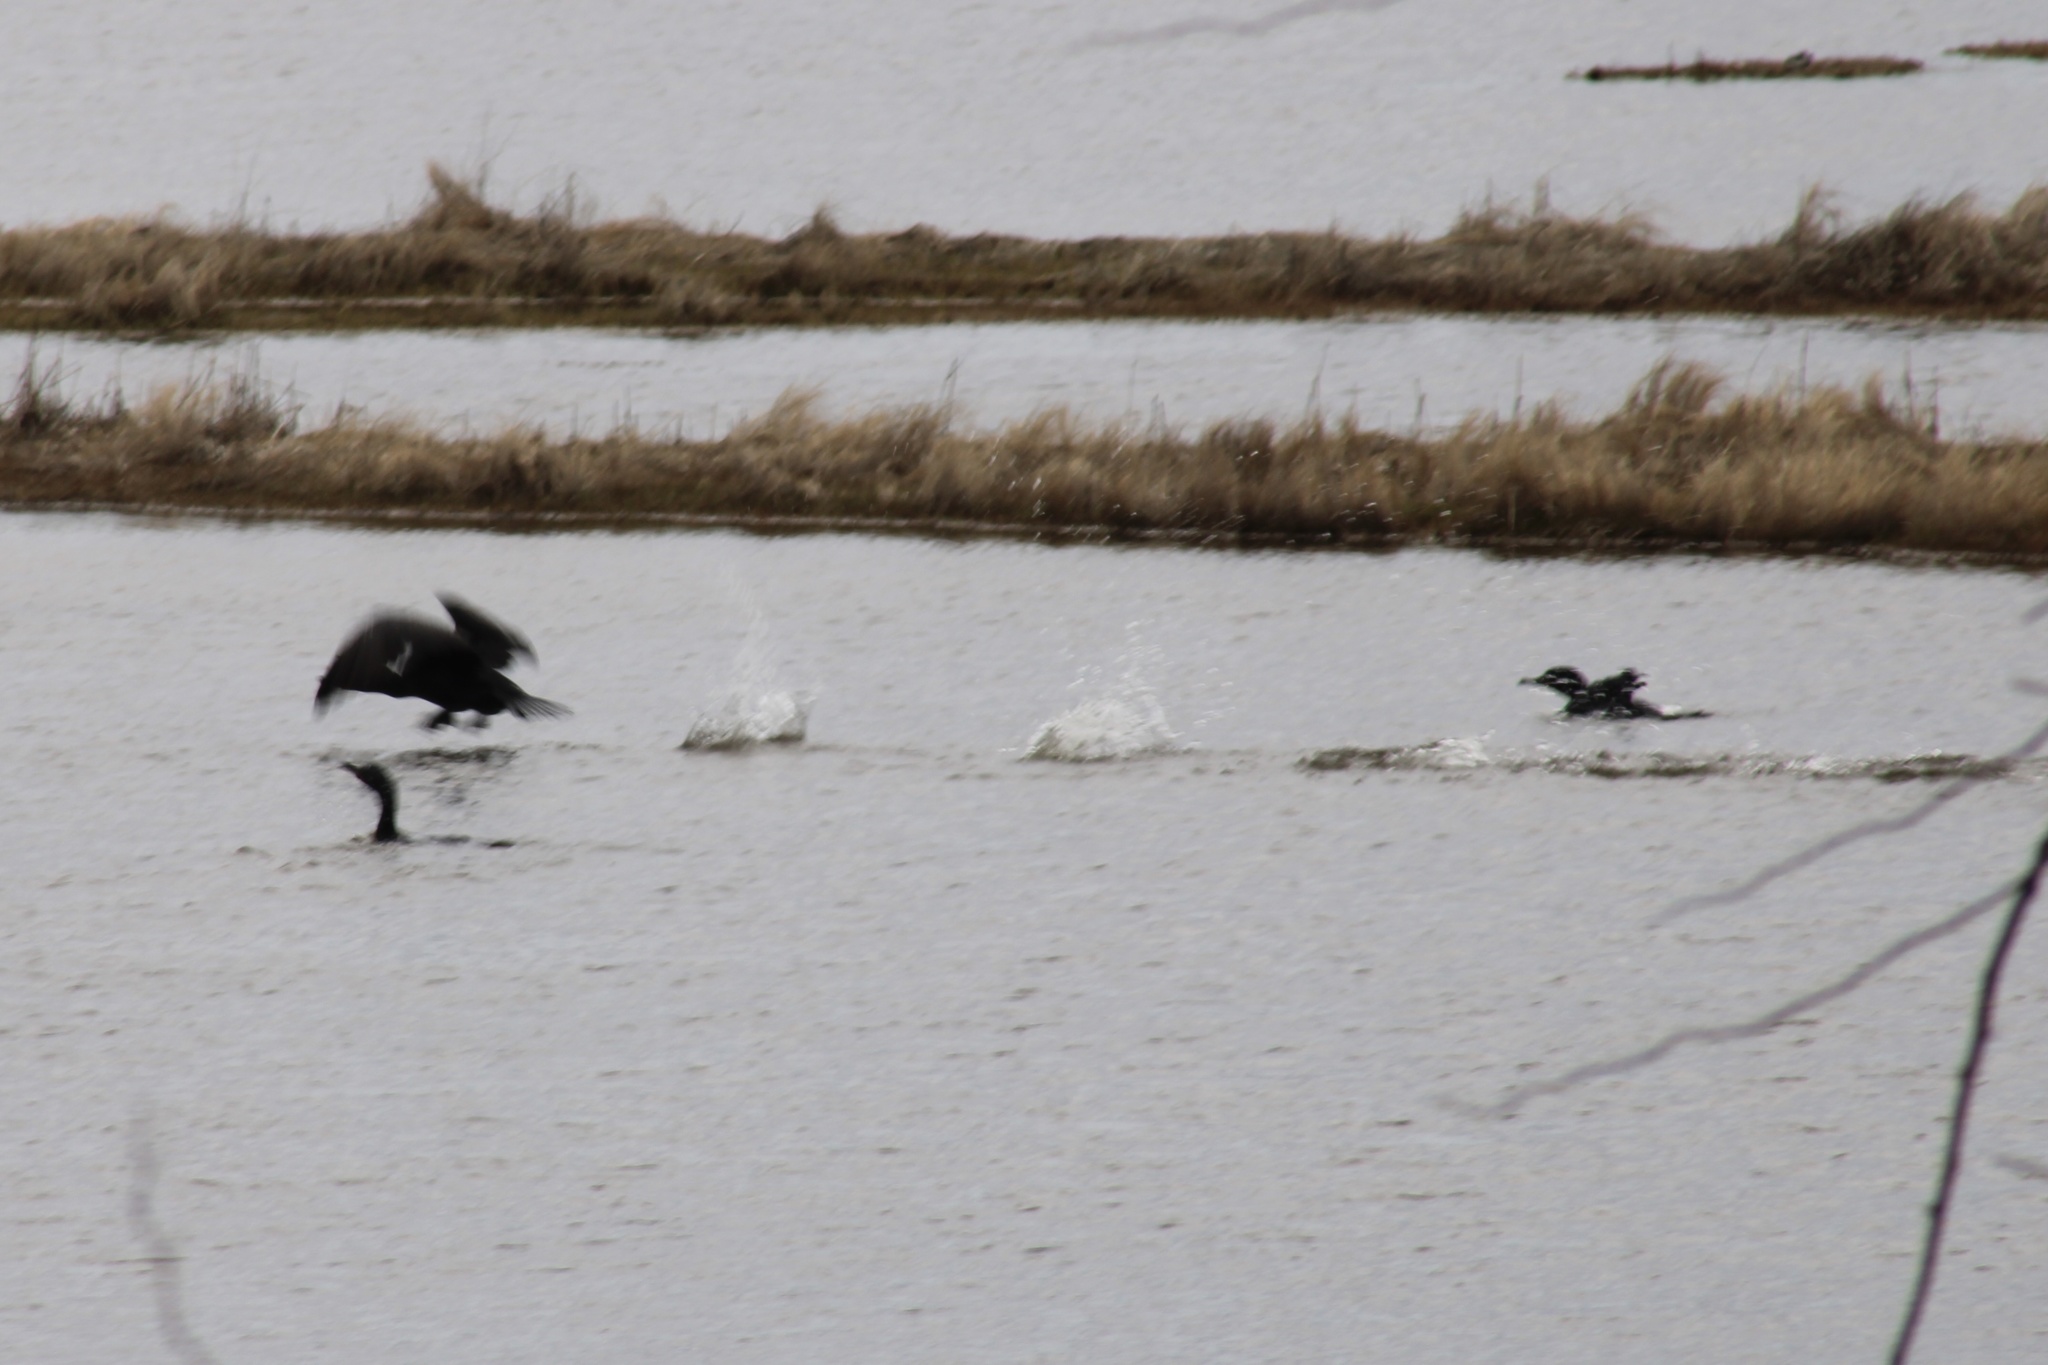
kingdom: Animalia
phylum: Chordata
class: Aves
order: Suliformes
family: Phalacrocoracidae
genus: Phalacrocorax
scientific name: Phalacrocorax auritus
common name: Double-crested cormorant
